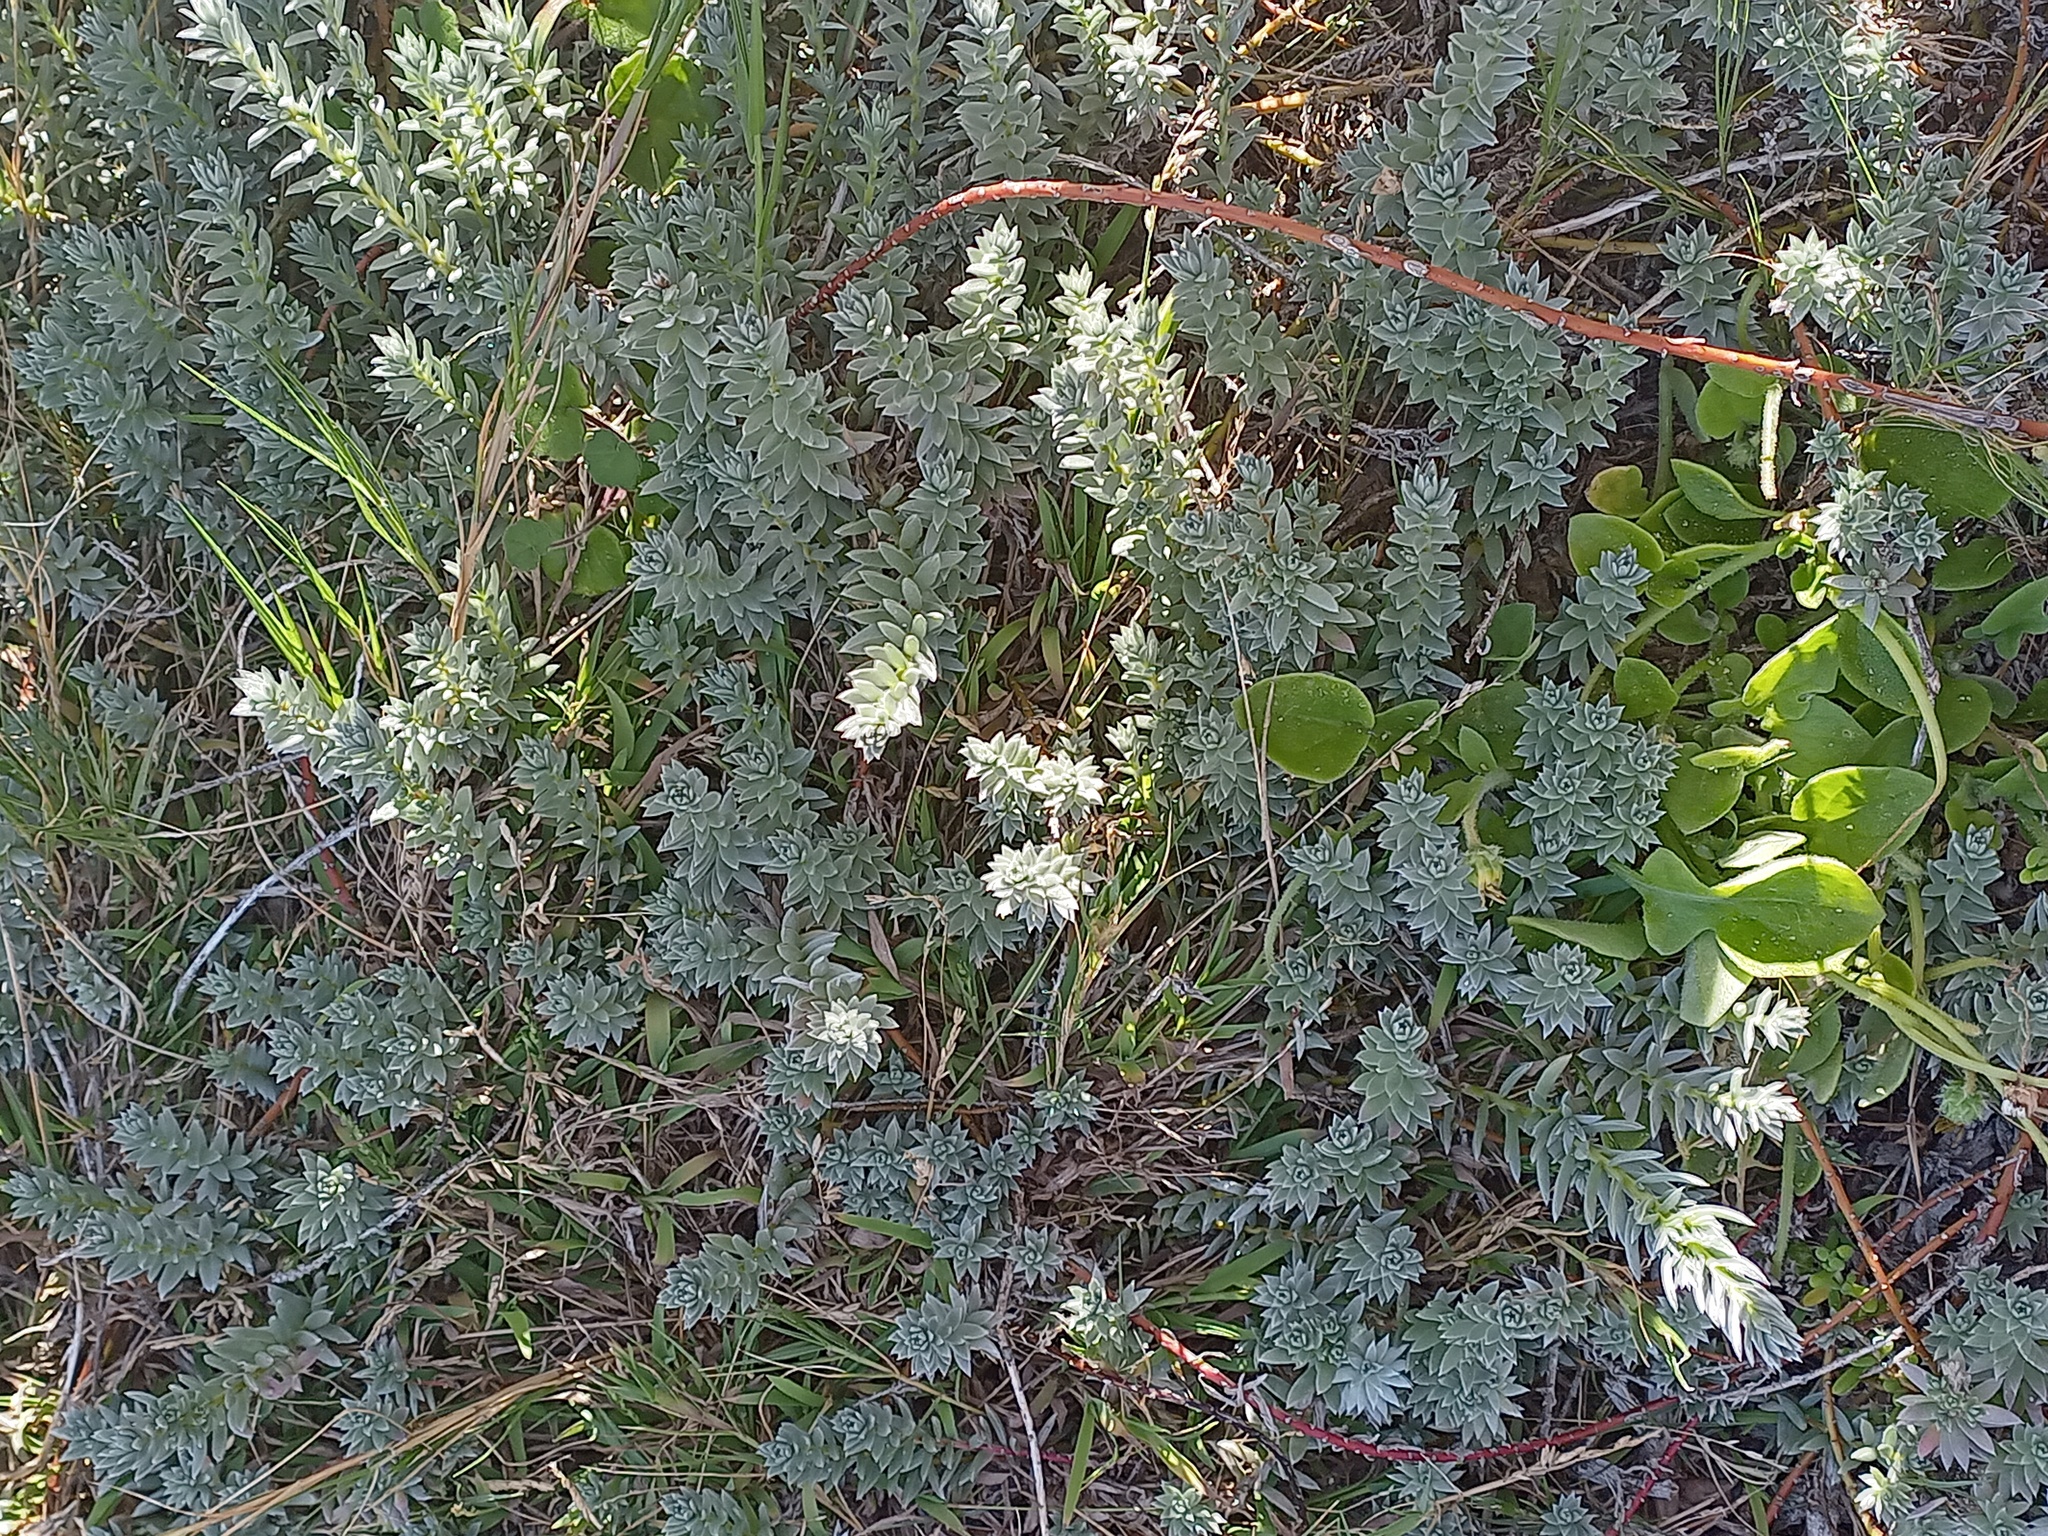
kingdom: Plantae
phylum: Tracheophyta
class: Magnoliopsida
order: Caryophyllales
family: Amaranthaceae
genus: Chenolea
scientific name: Chenolea diffusa
